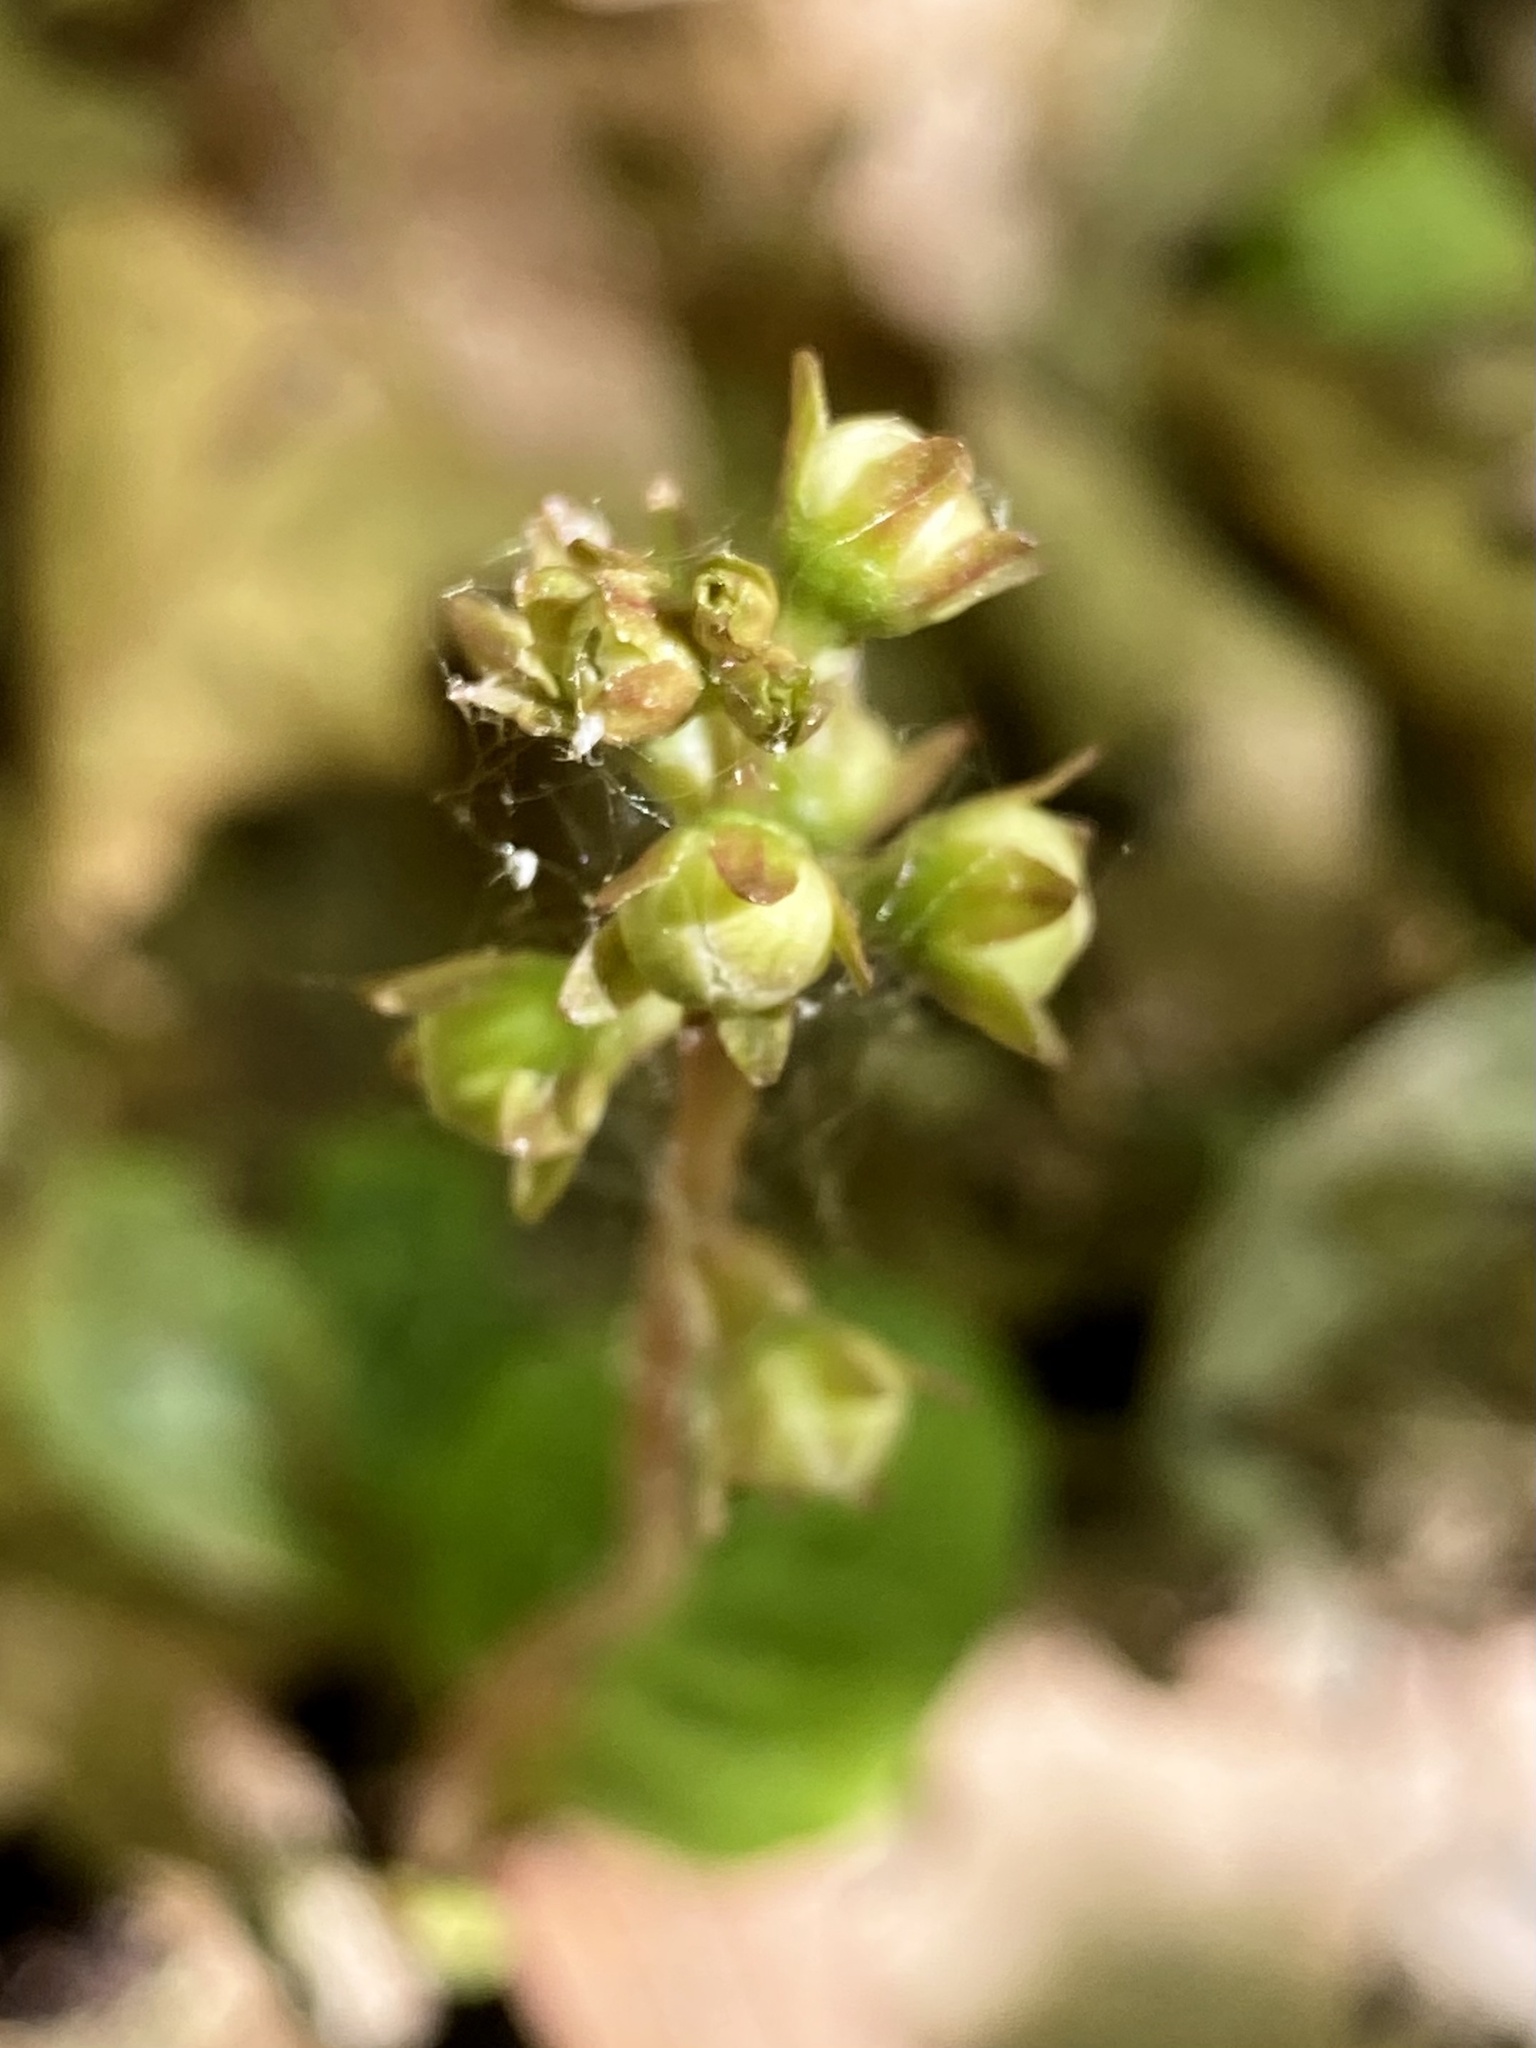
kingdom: Plantae
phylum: Tracheophyta
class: Magnoliopsida
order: Ericales
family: Ericaceae
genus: Pyrola
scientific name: Pyrola americana
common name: American wintergreen
